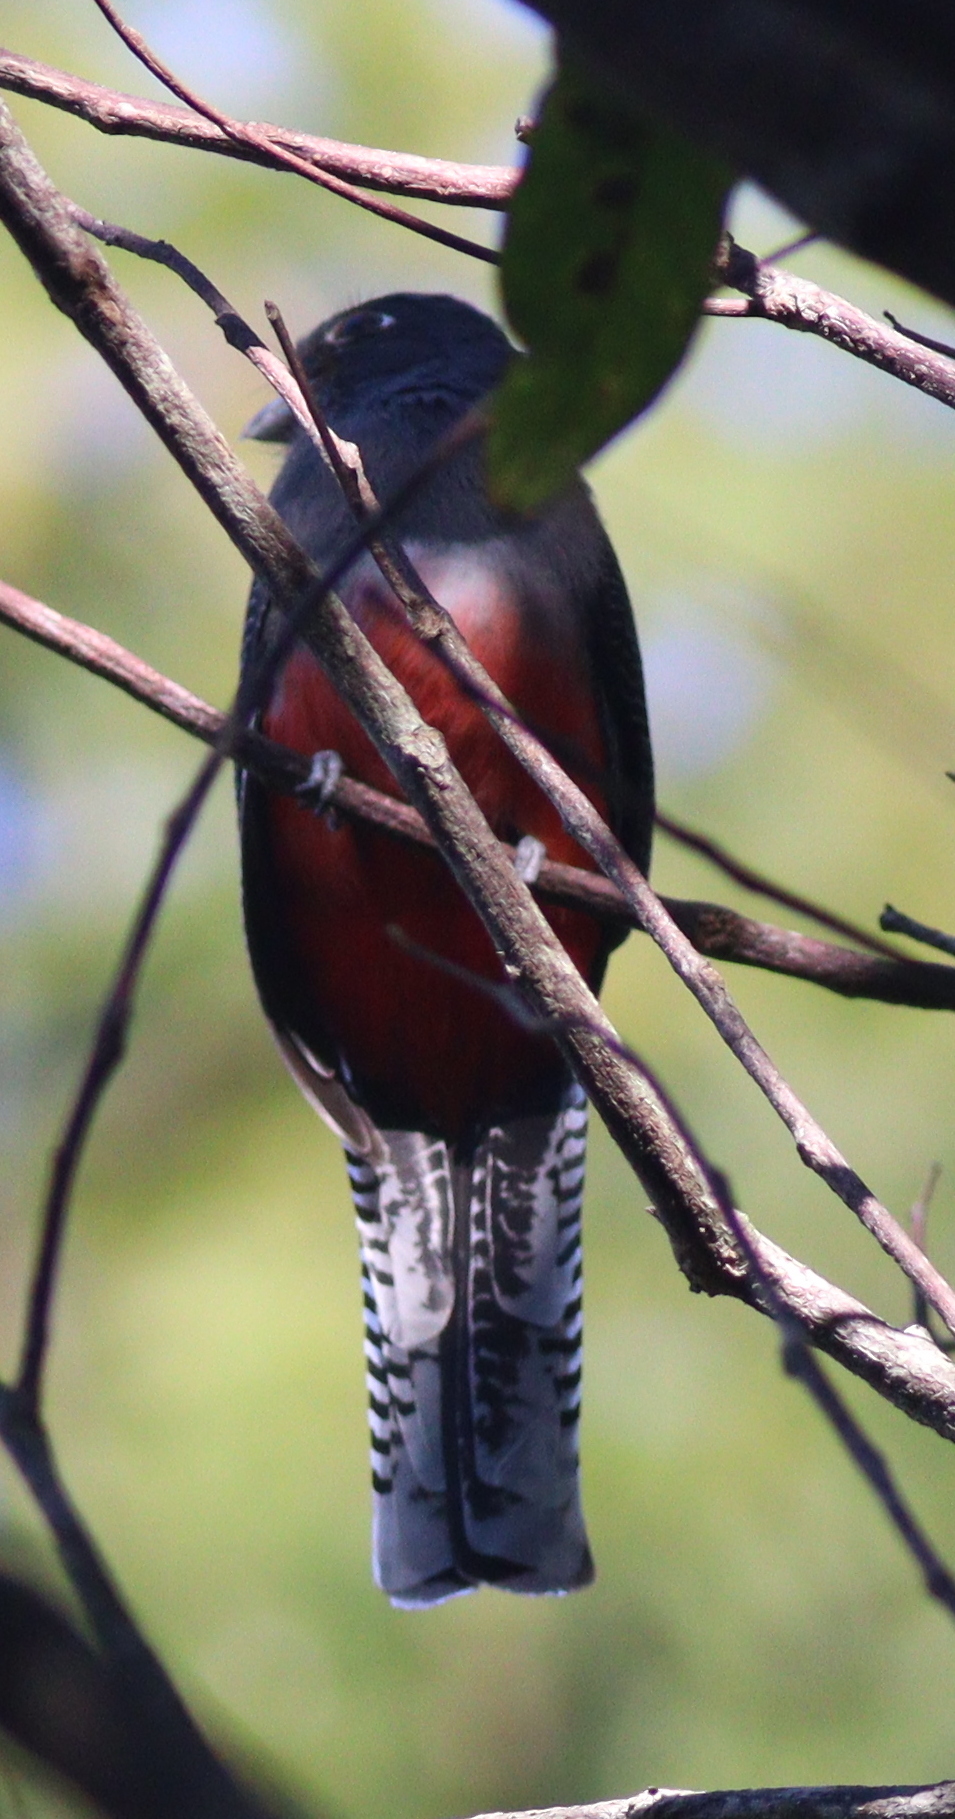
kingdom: Animalia
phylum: Chordata
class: Aves
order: Trogoniformes
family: Trogonidae
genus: Trogon
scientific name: Trogon curucui
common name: Blue-crowned trogon
